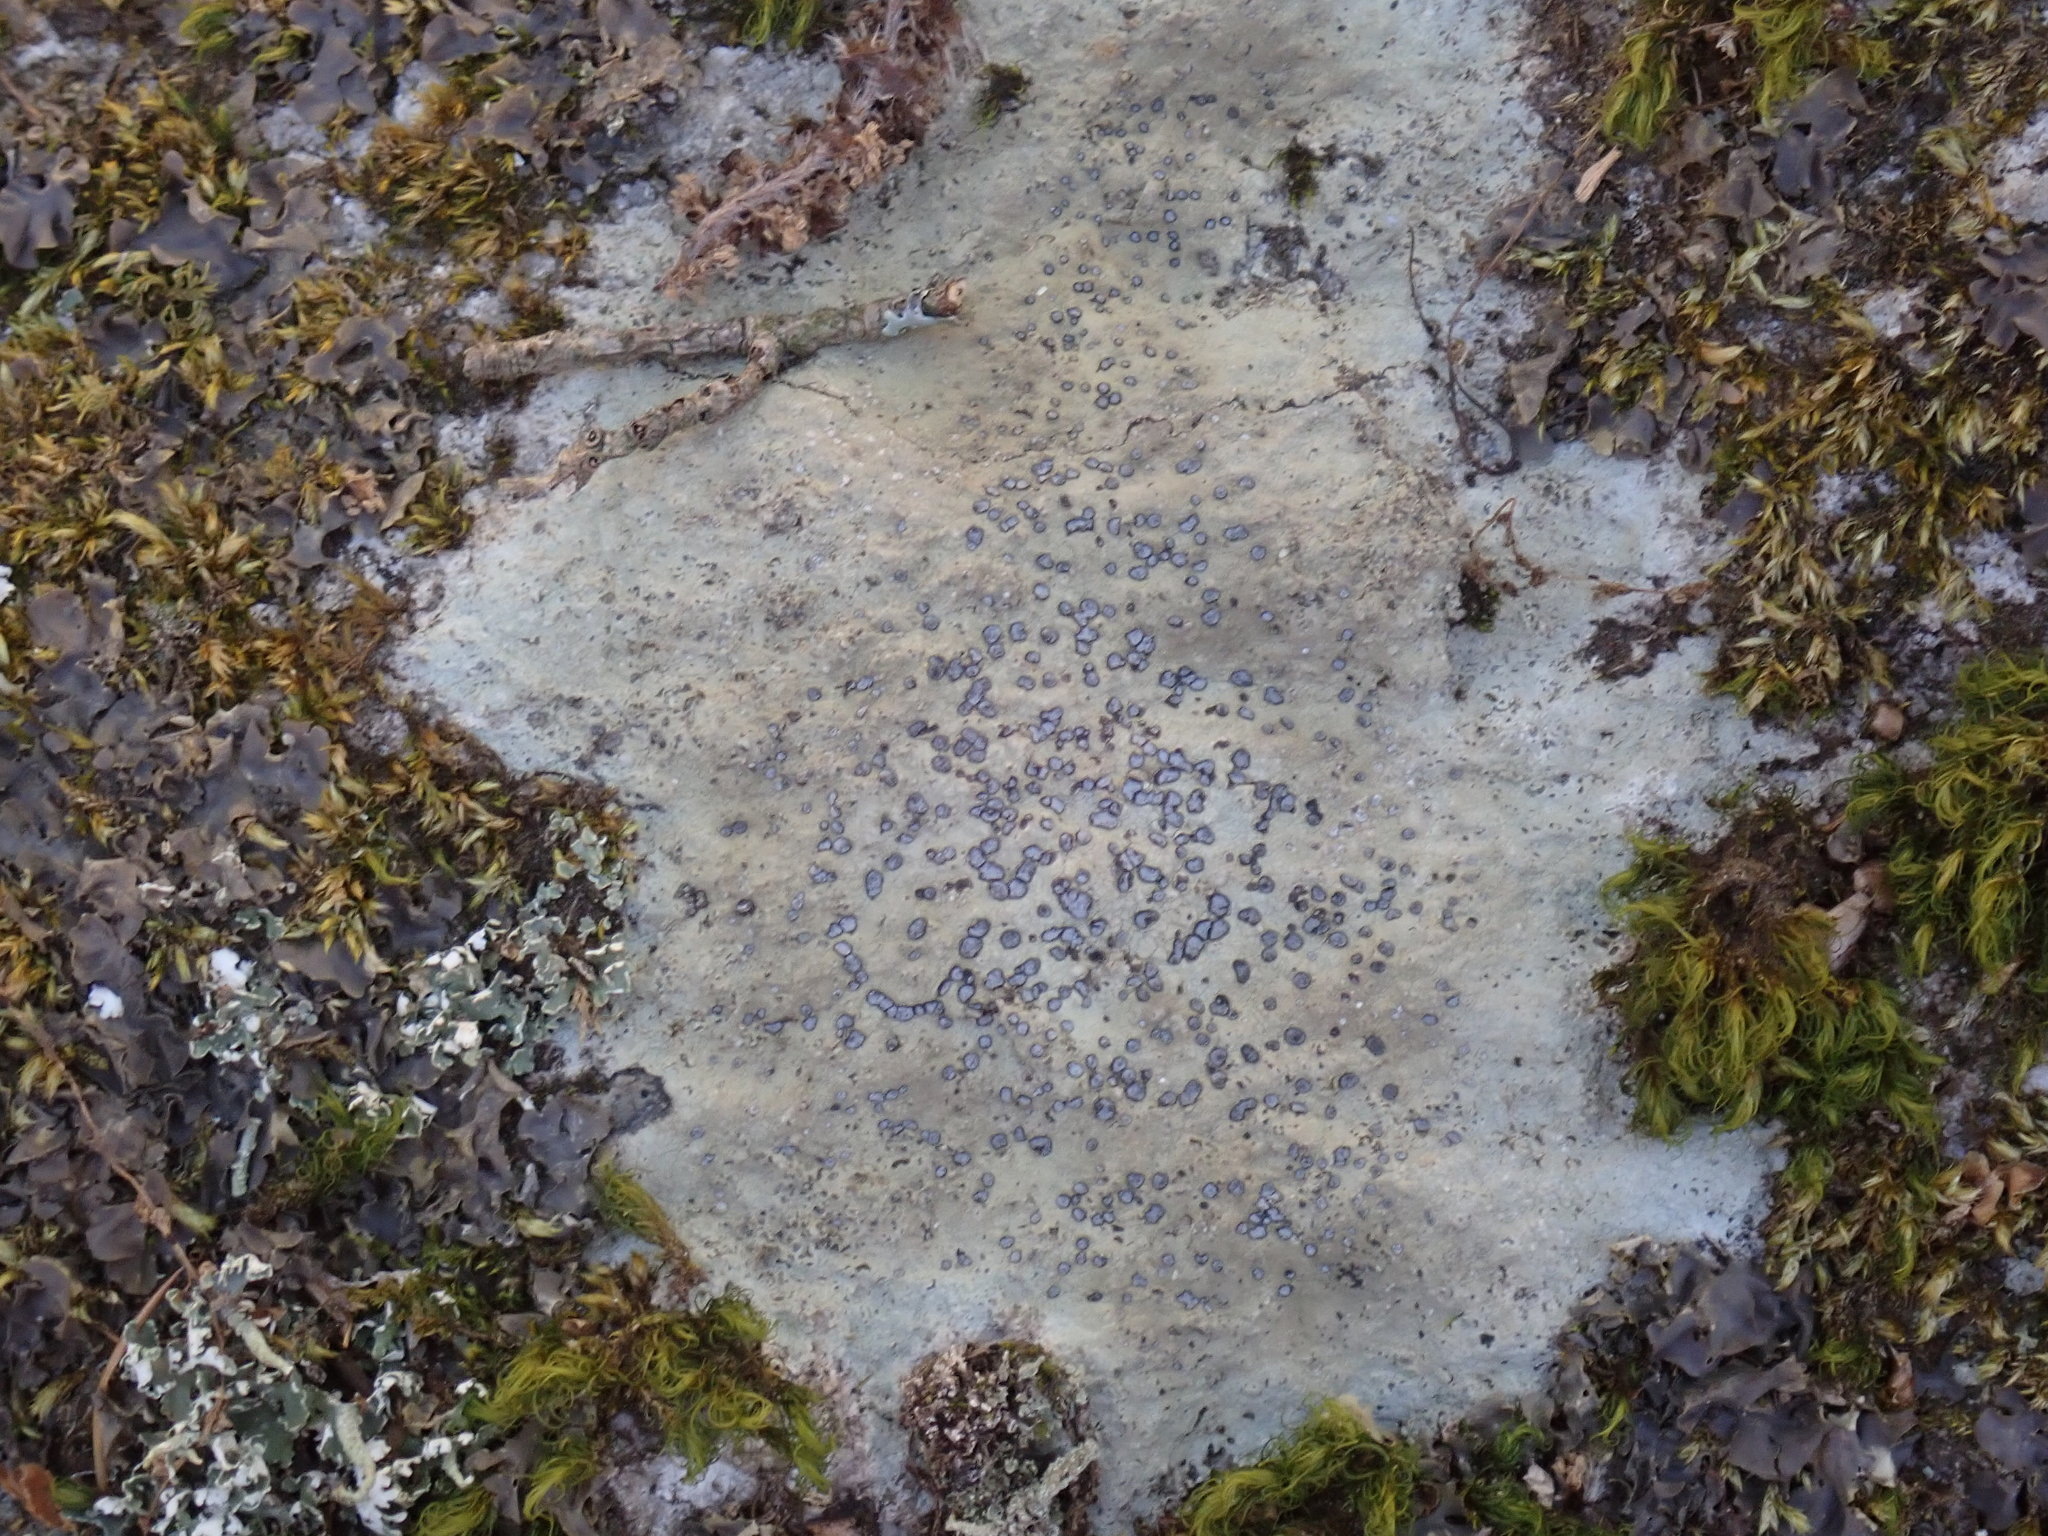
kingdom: Fungi
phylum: Ascomycota
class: Lecanoromycetes
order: Lecideales
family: Lecideaceae
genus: Porpidia
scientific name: Porpidia albocaerulescens
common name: Smokey-eyed boulder lichen
